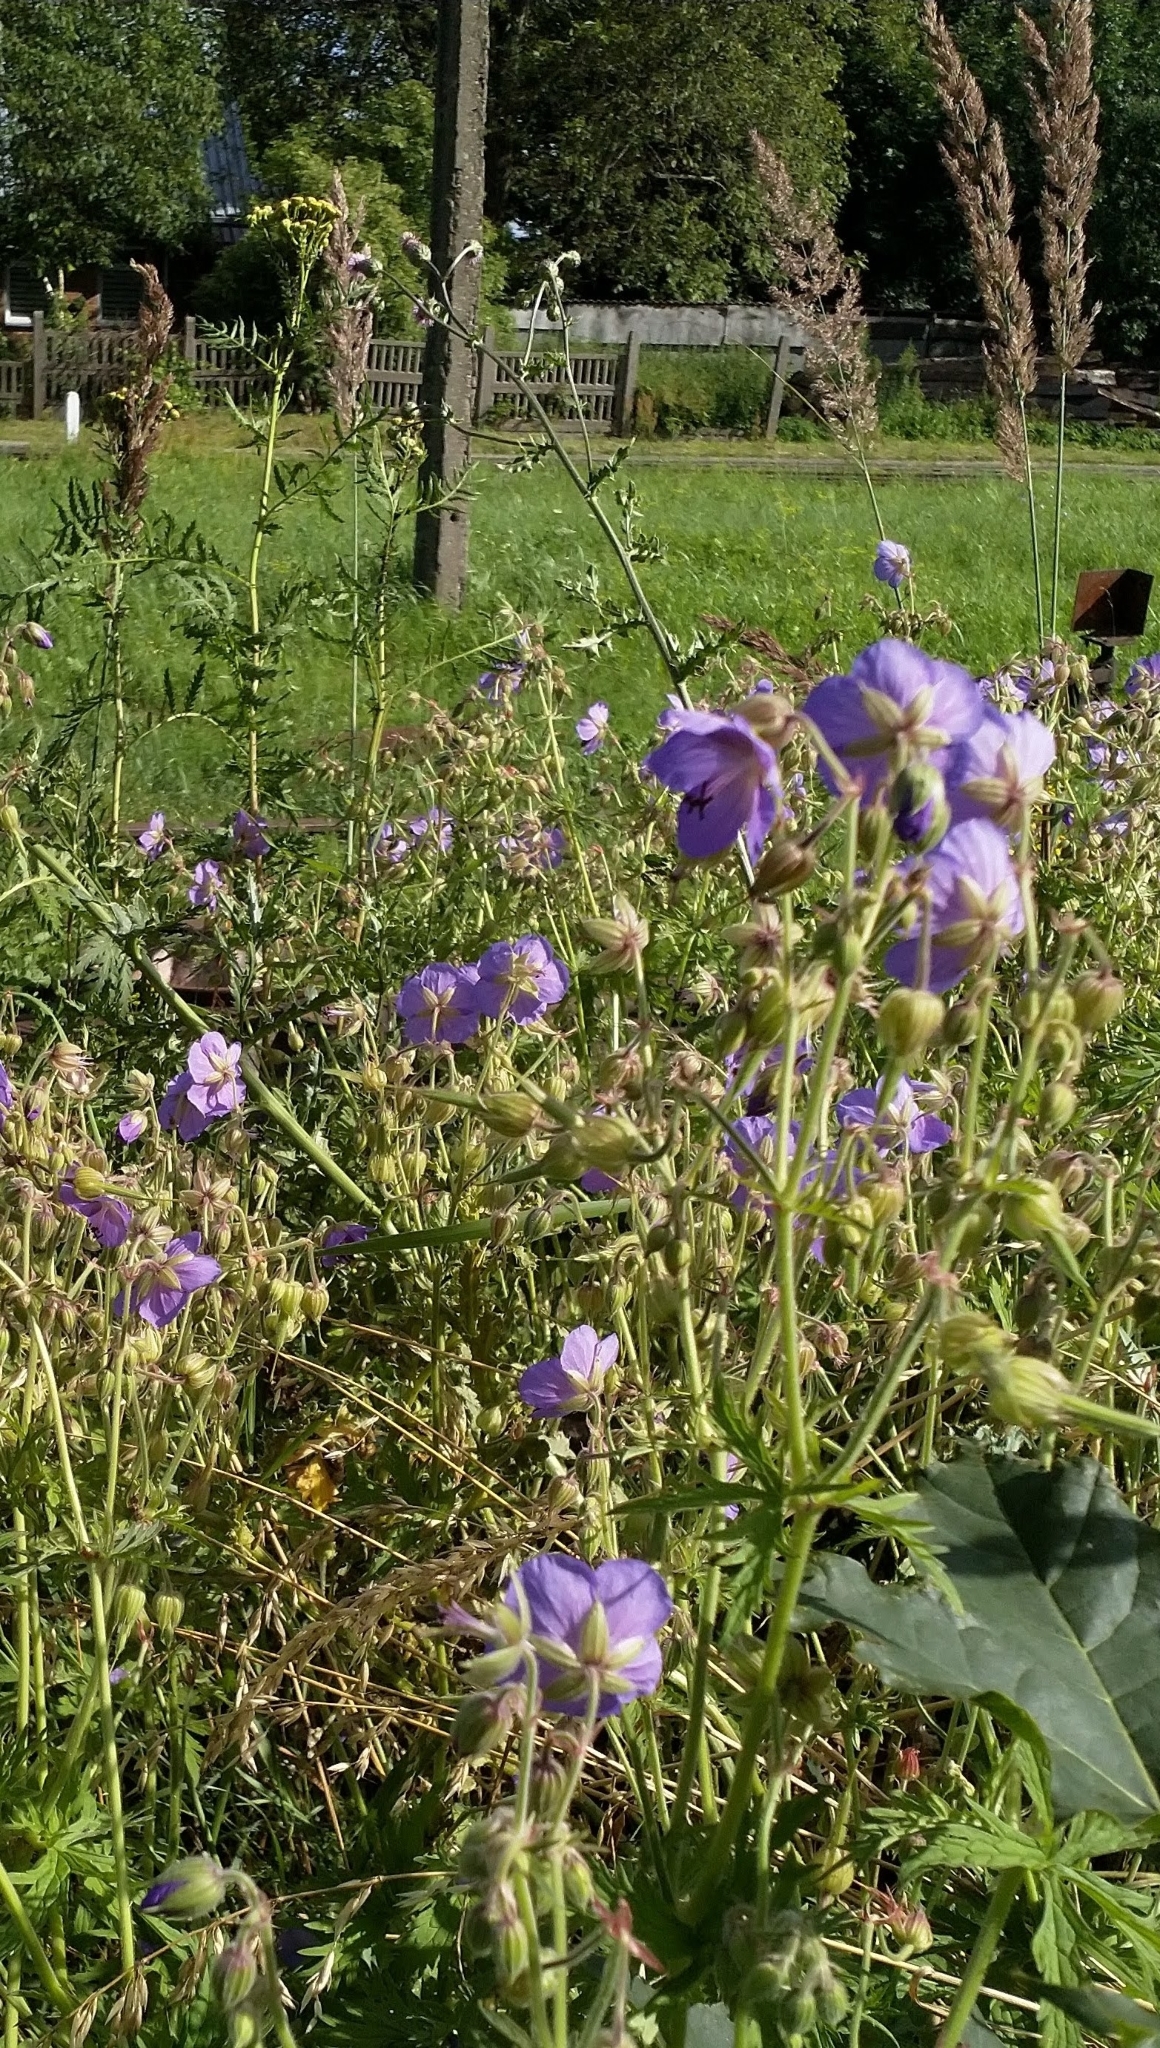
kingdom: Plantae
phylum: Tracheophyta
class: Magnoliopsida
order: Geraniales
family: Geraniaceae
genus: Geranium
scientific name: Geranium pratense
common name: Meadow crane's-bill
